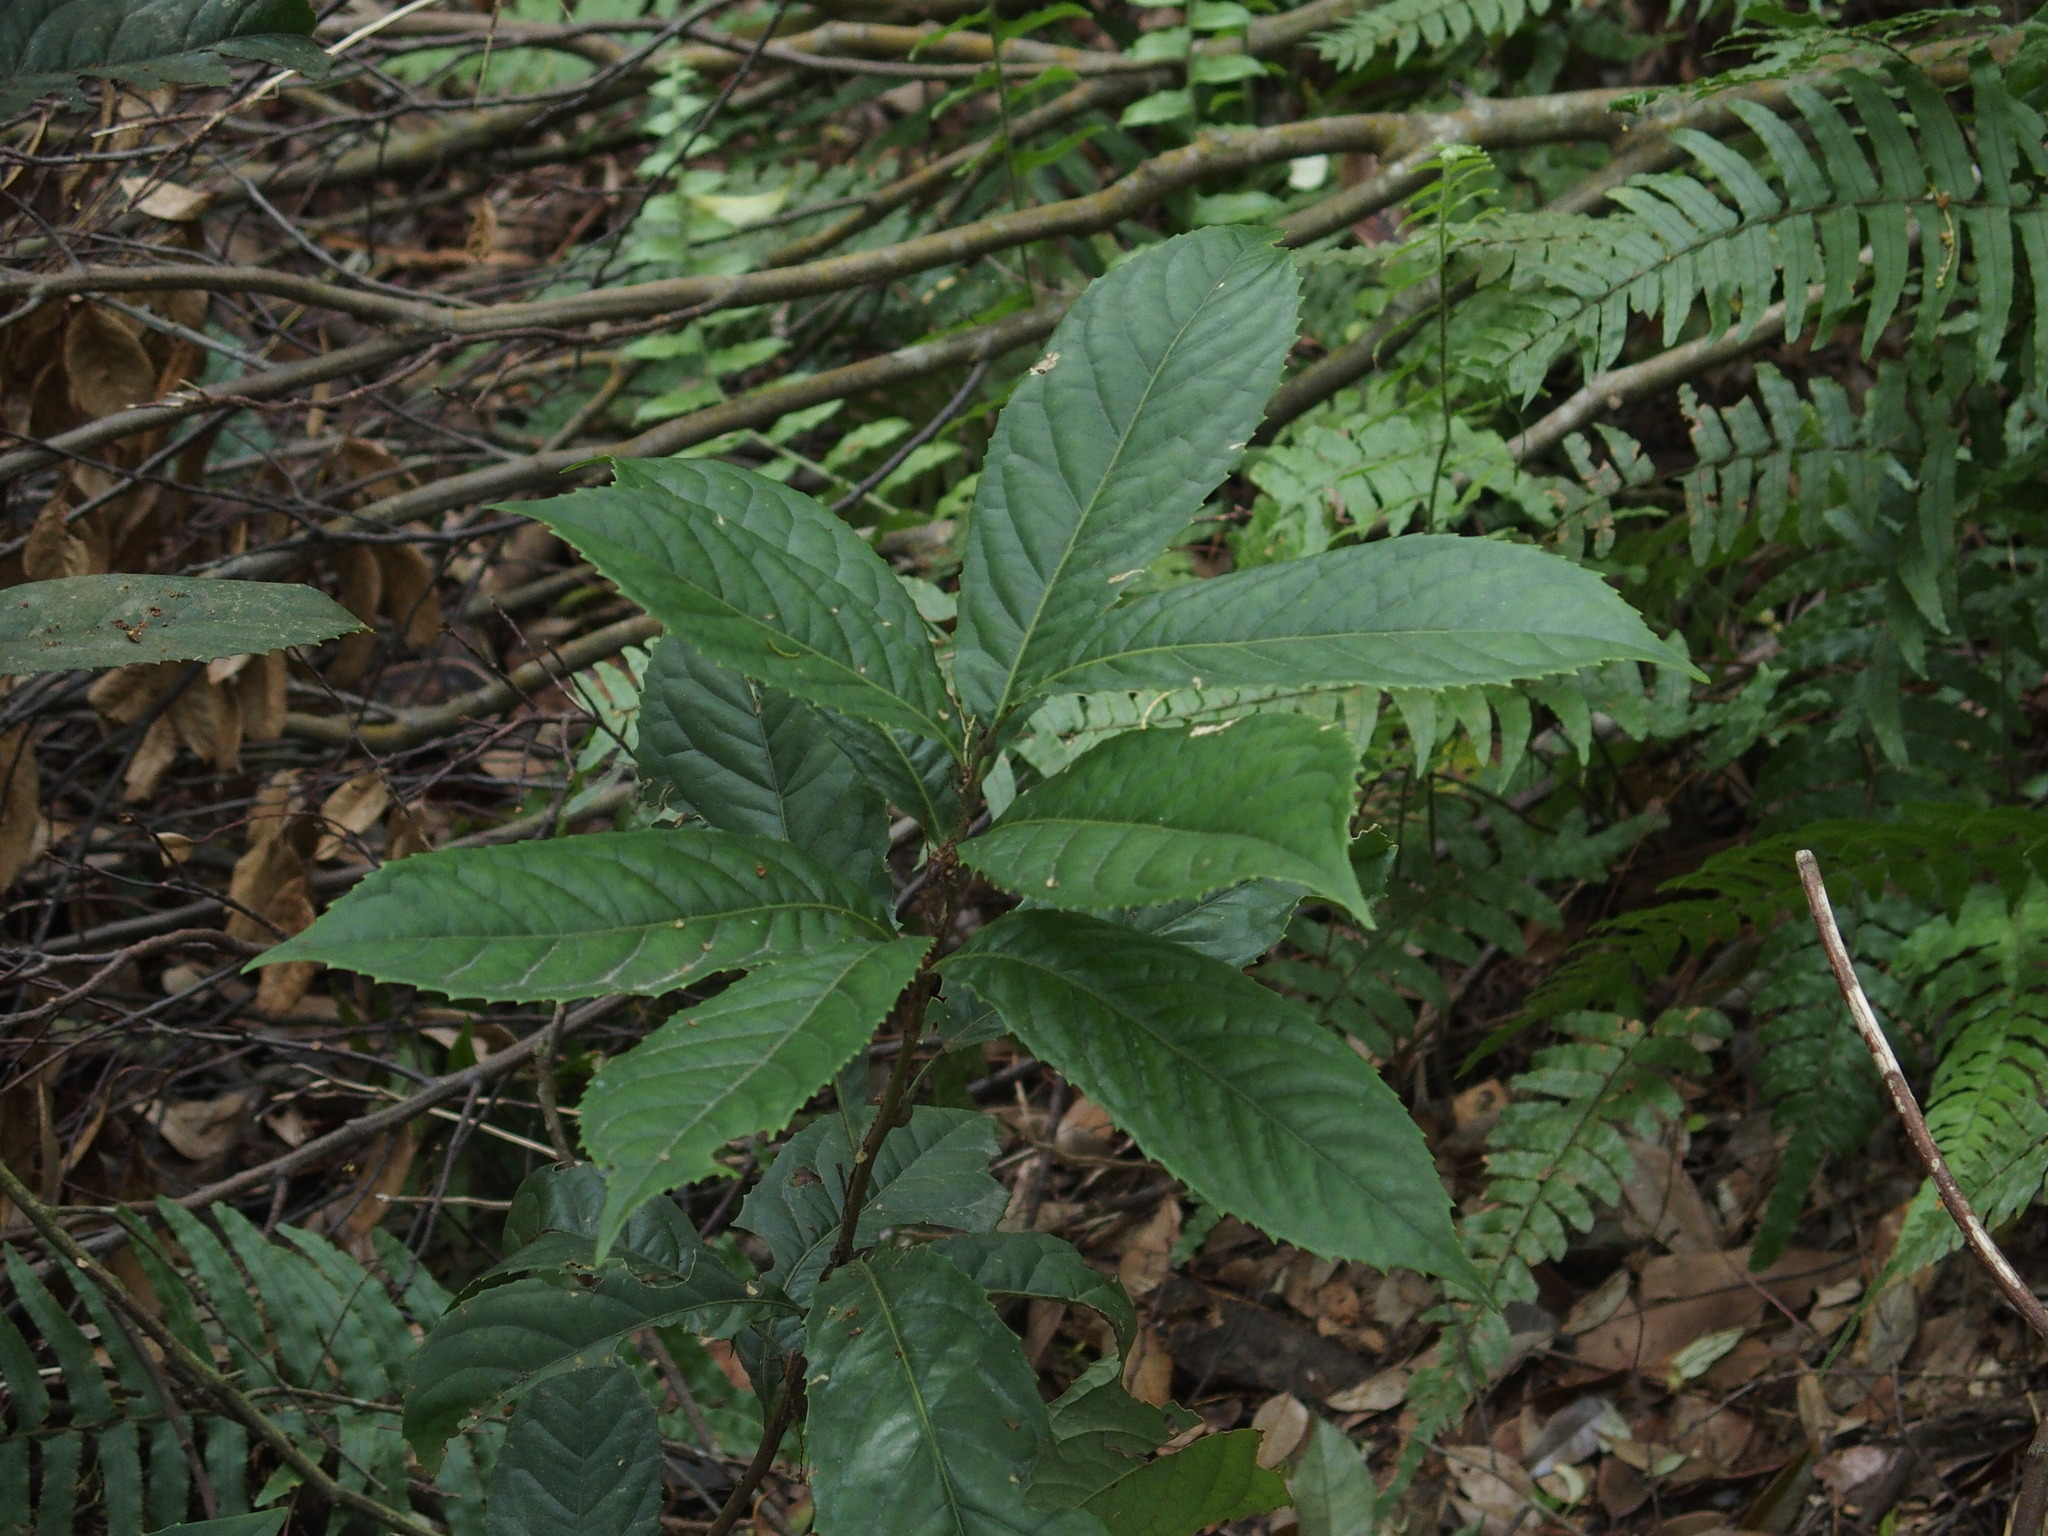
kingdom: Plantae
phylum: Tracheophyta
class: Magnoliopsida
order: Proteales
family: Proteaceae
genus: Helicia
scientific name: Helicia formosana
